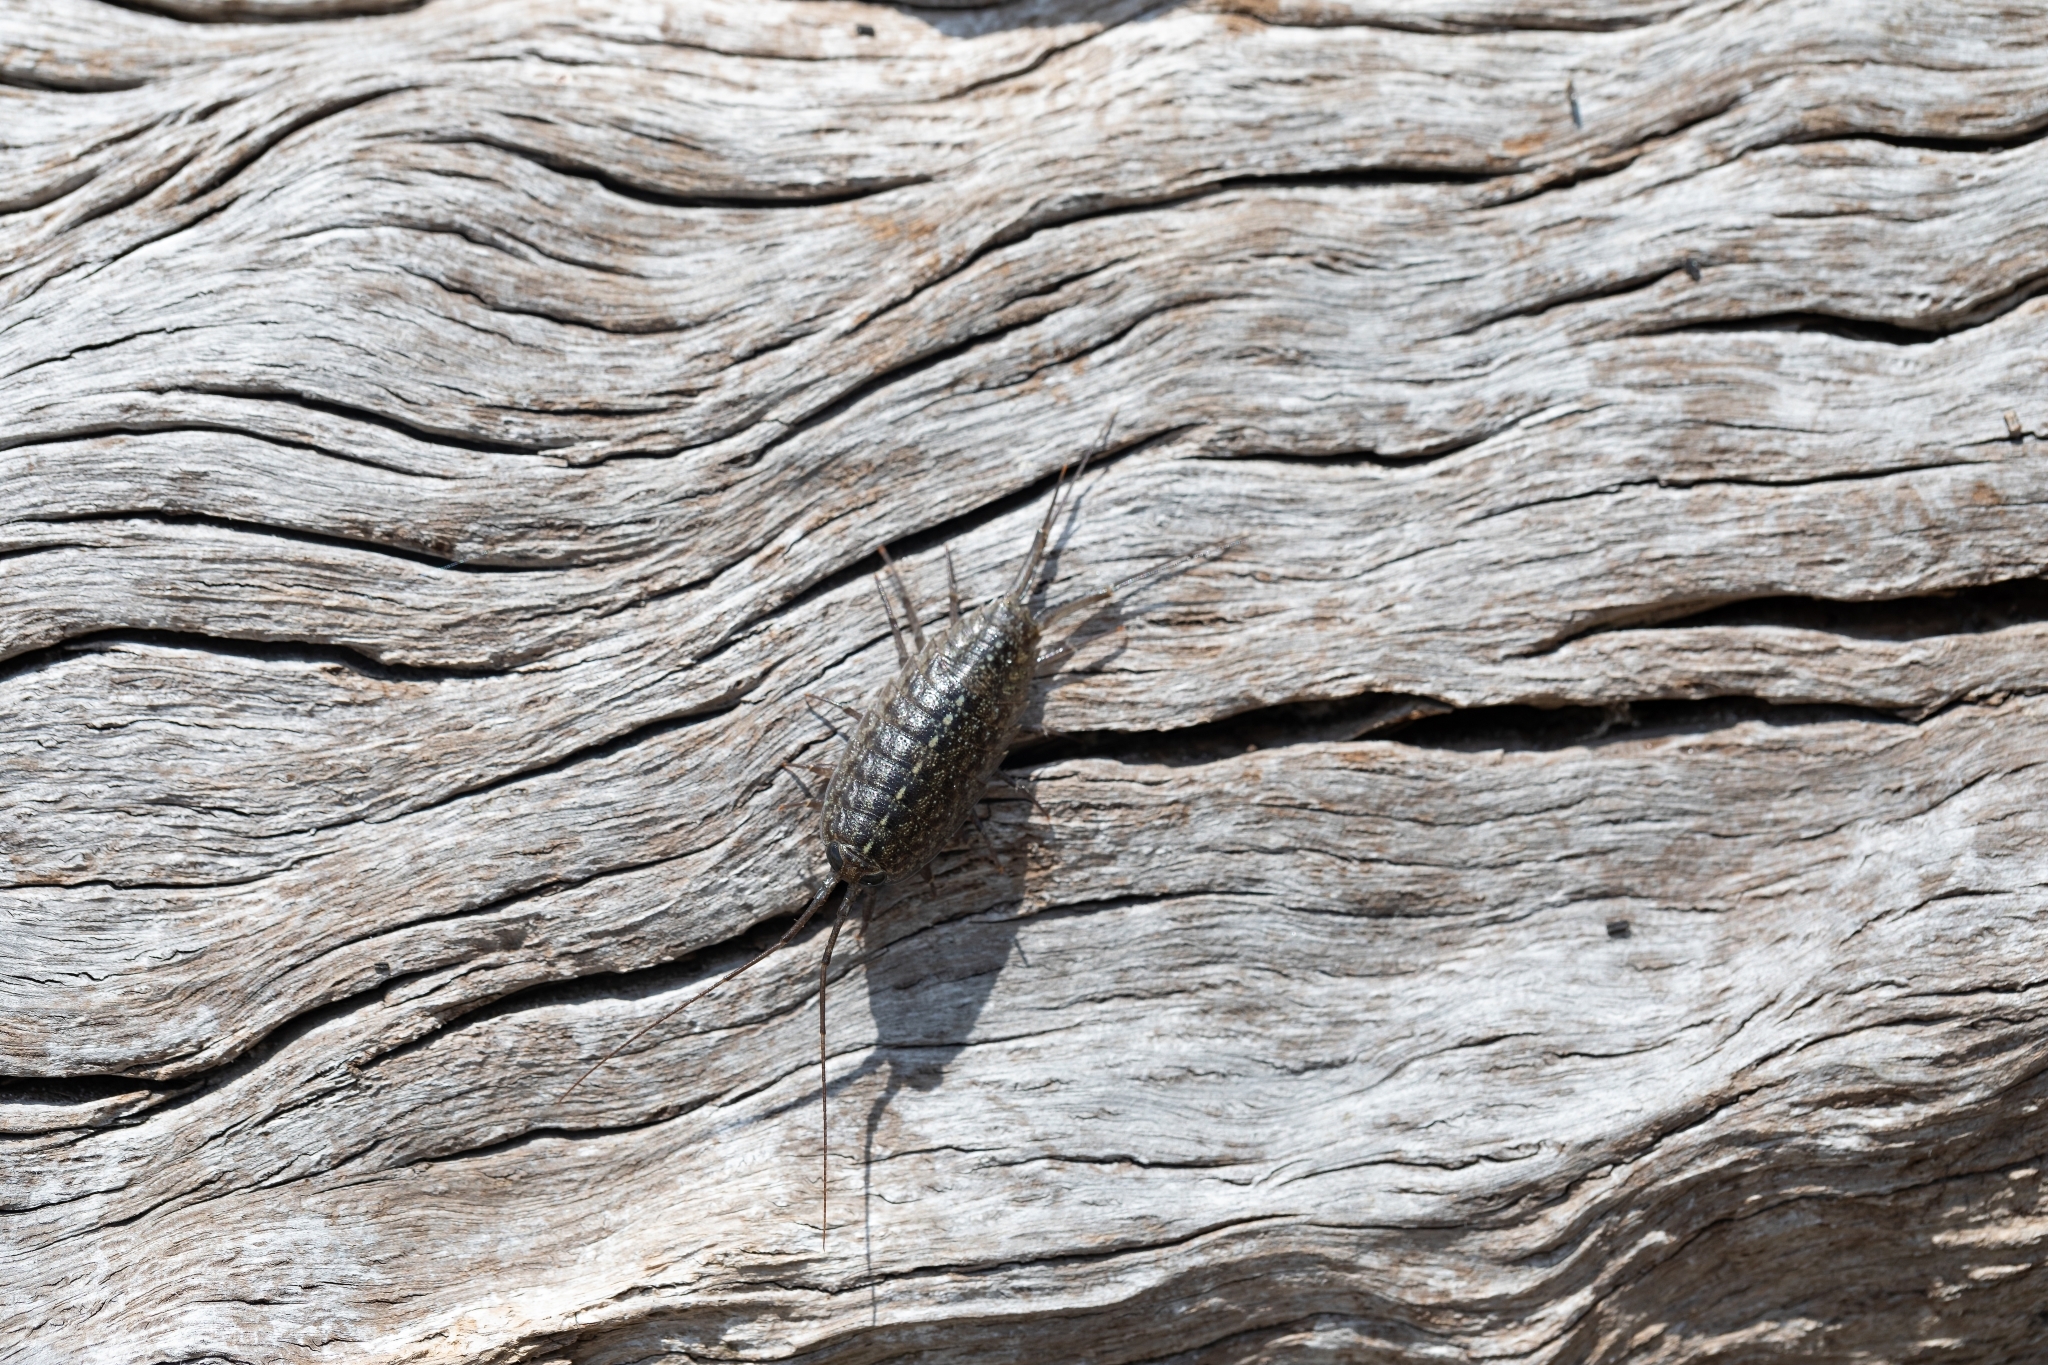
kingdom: Animalia
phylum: Arthropoda
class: Malacostraca
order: Isopoda
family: Ligiidae
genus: Ligia
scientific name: Ligia exotica
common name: Wharf roach
